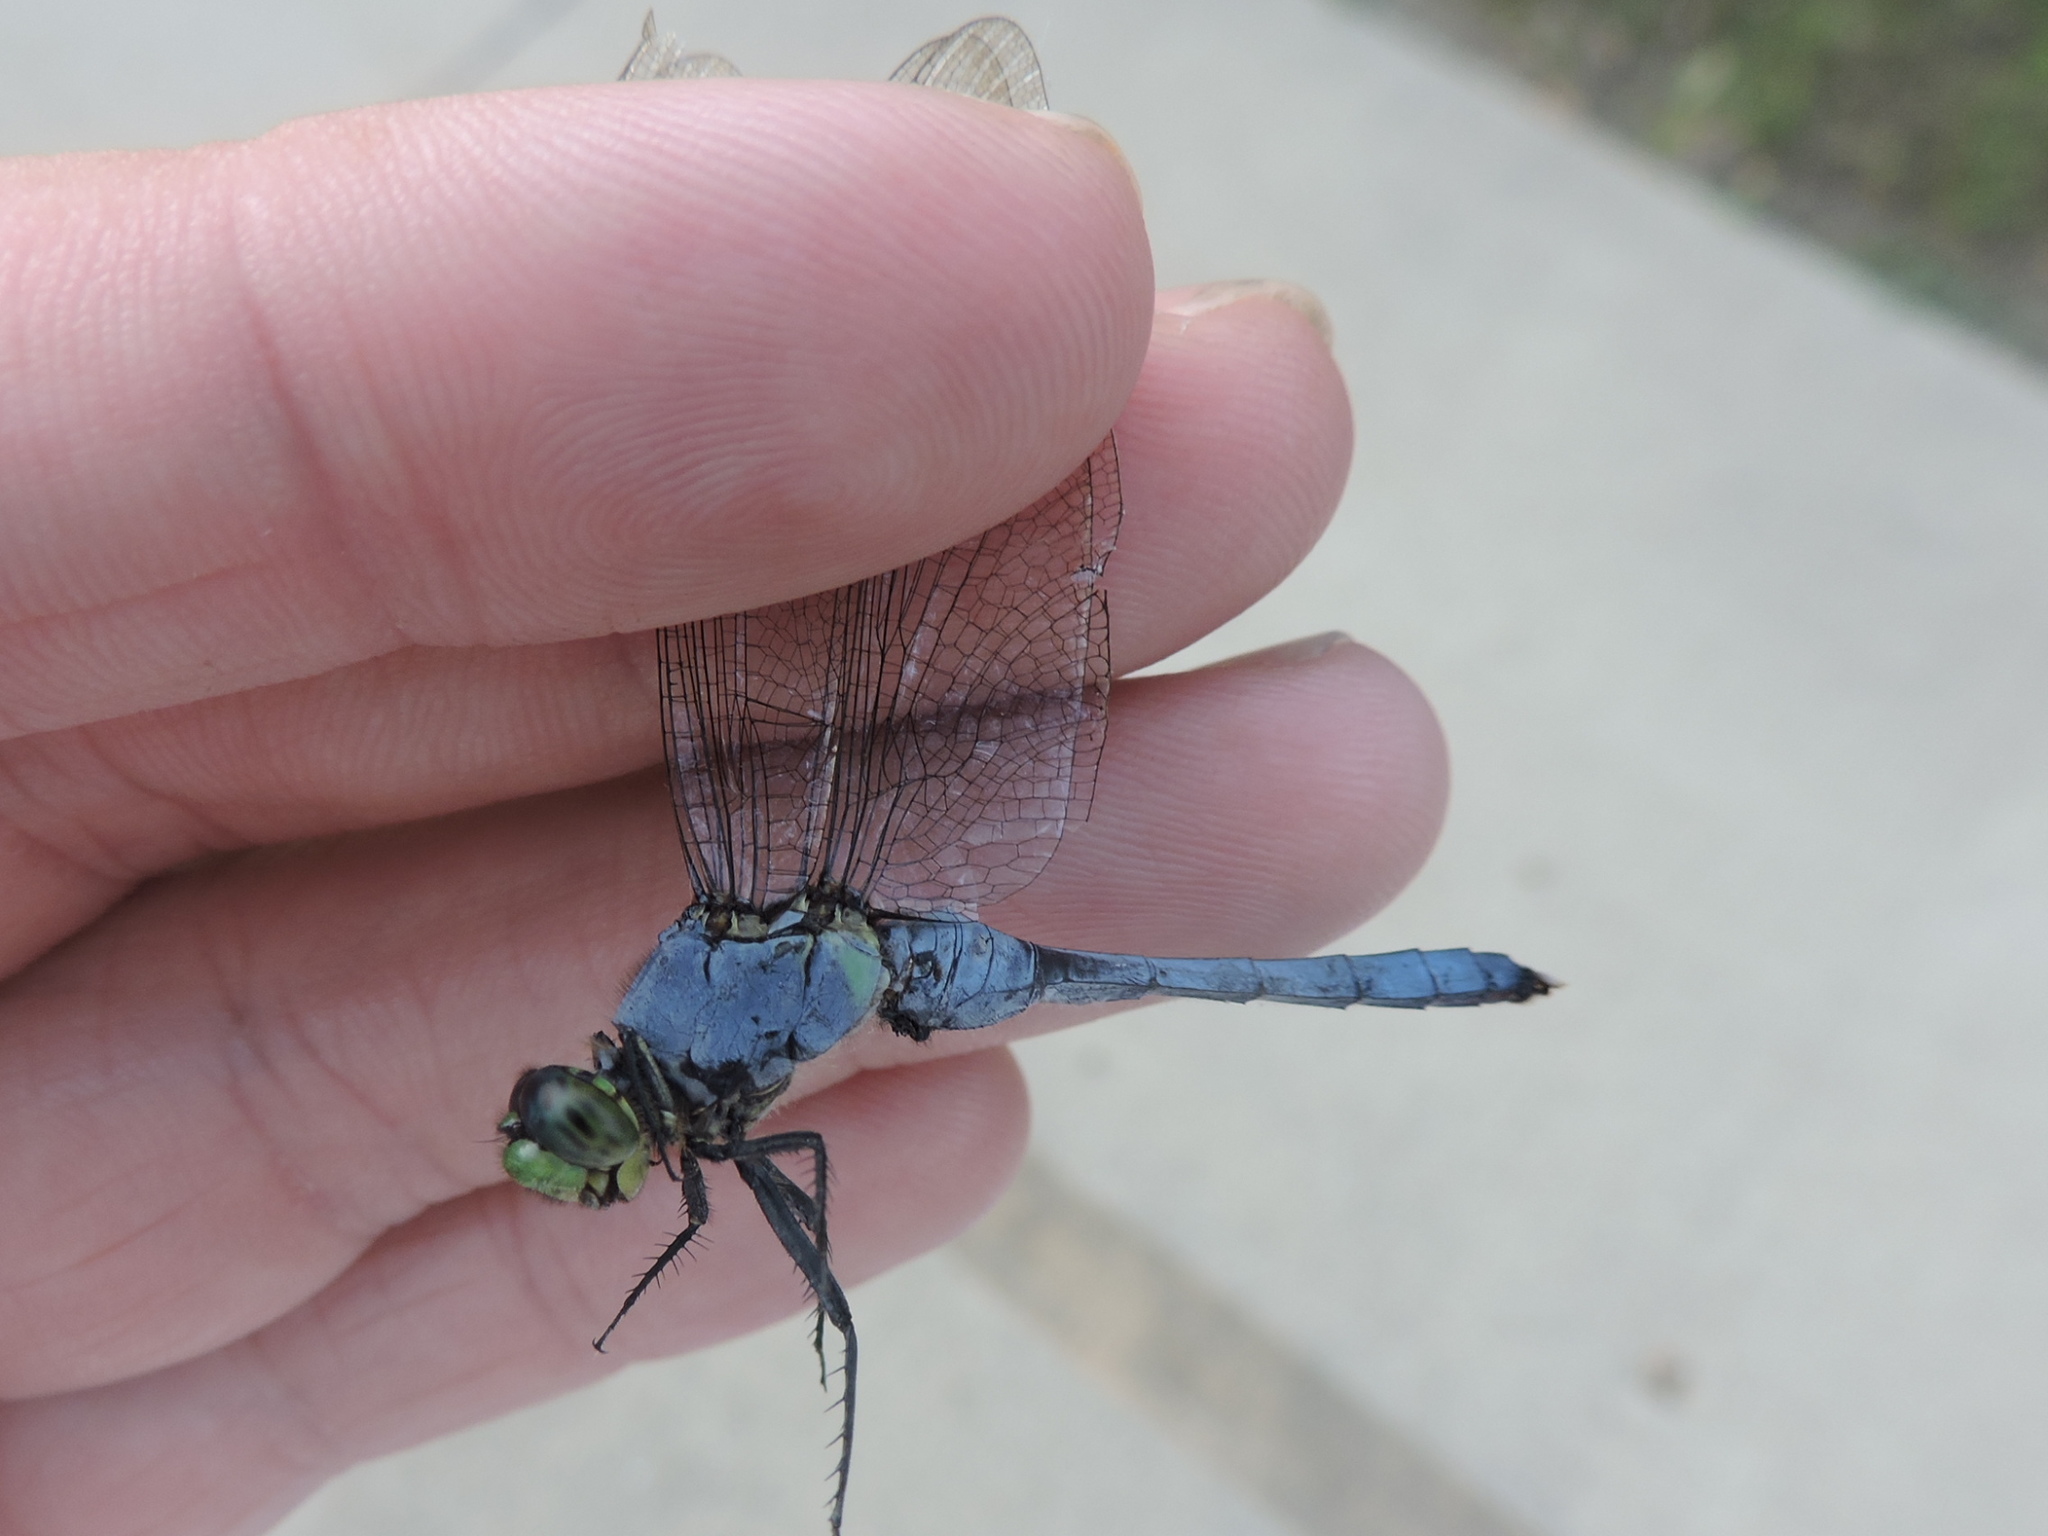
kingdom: Animalia
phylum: Arthropoda
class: Insecta
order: Odonata
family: Libellulidae
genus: Erythemis
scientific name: Erythemis simplicicollis
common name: Eastern pondhawk
